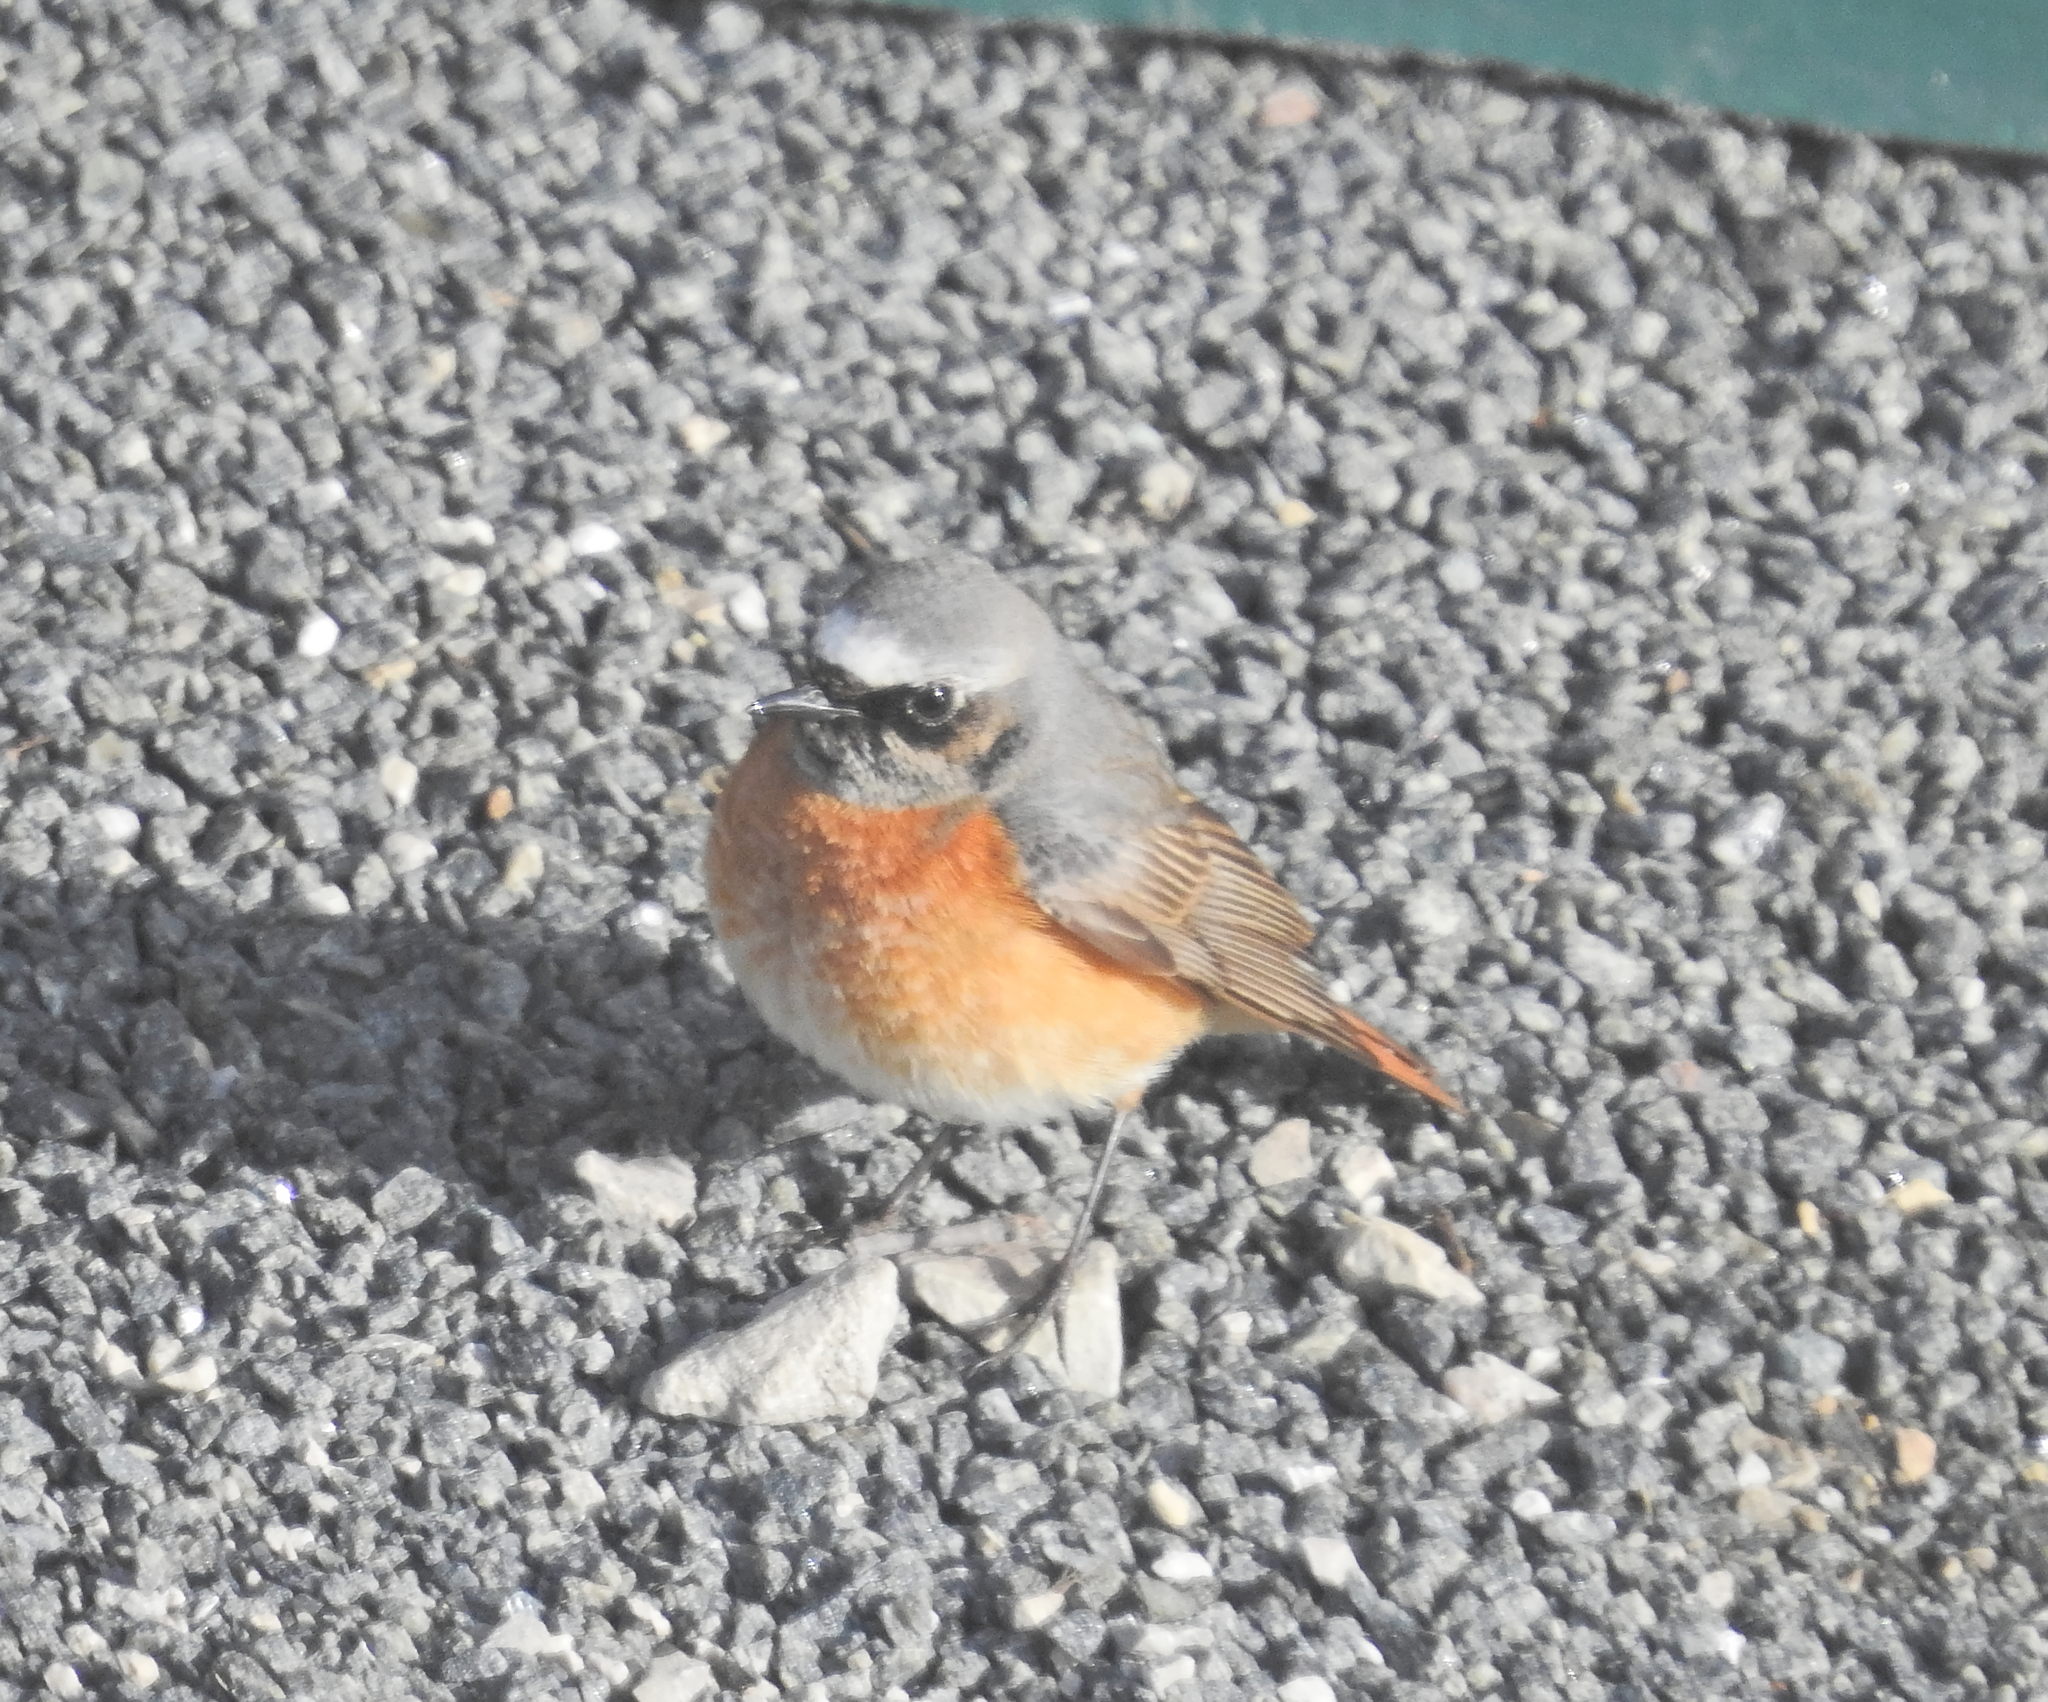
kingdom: Animalia
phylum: Chordata
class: Aves
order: Passeriformes
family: Muscicapidae
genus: Phoenicurus
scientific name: Phoenicurus phoenicurus
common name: Common redstart
